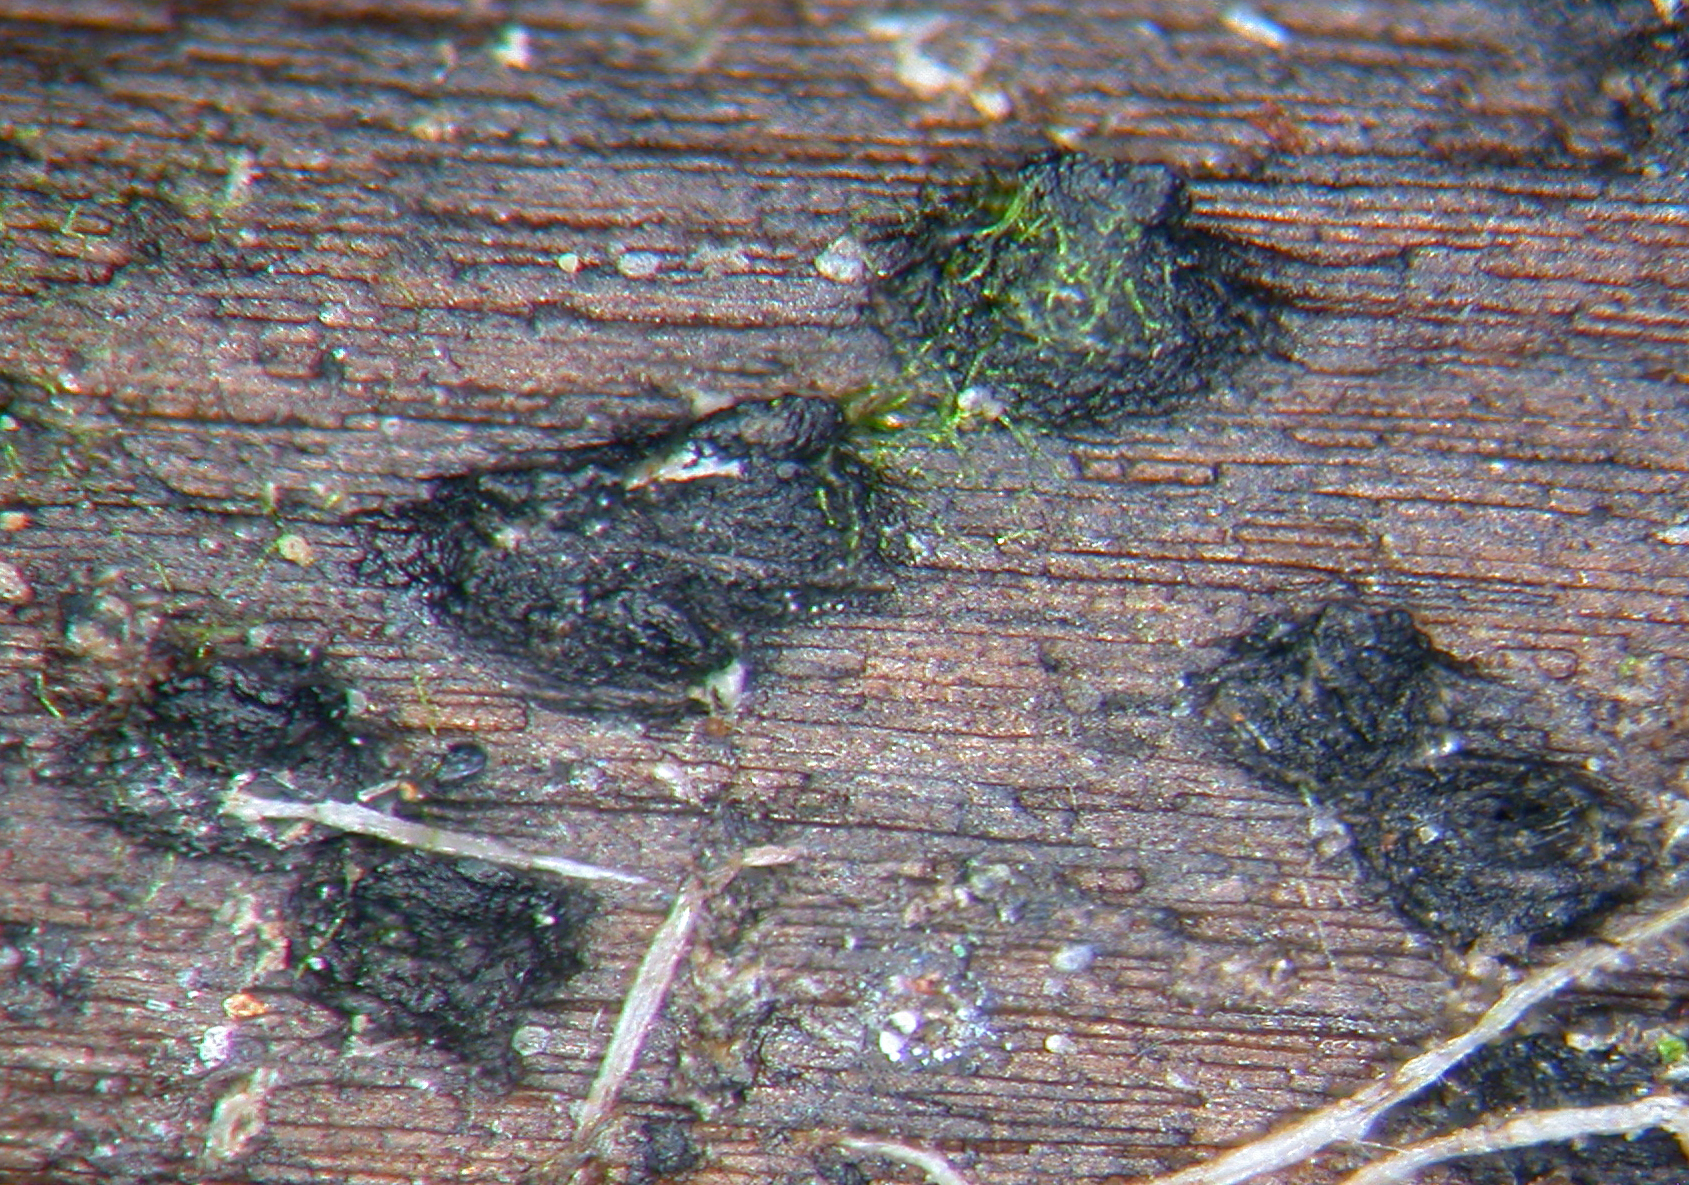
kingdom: Fungi
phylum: Ascomycota
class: Dothideomycetes
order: Pleosporales
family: Lophiostomataceae
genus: Sigarispora
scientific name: Sigarispora caulium
